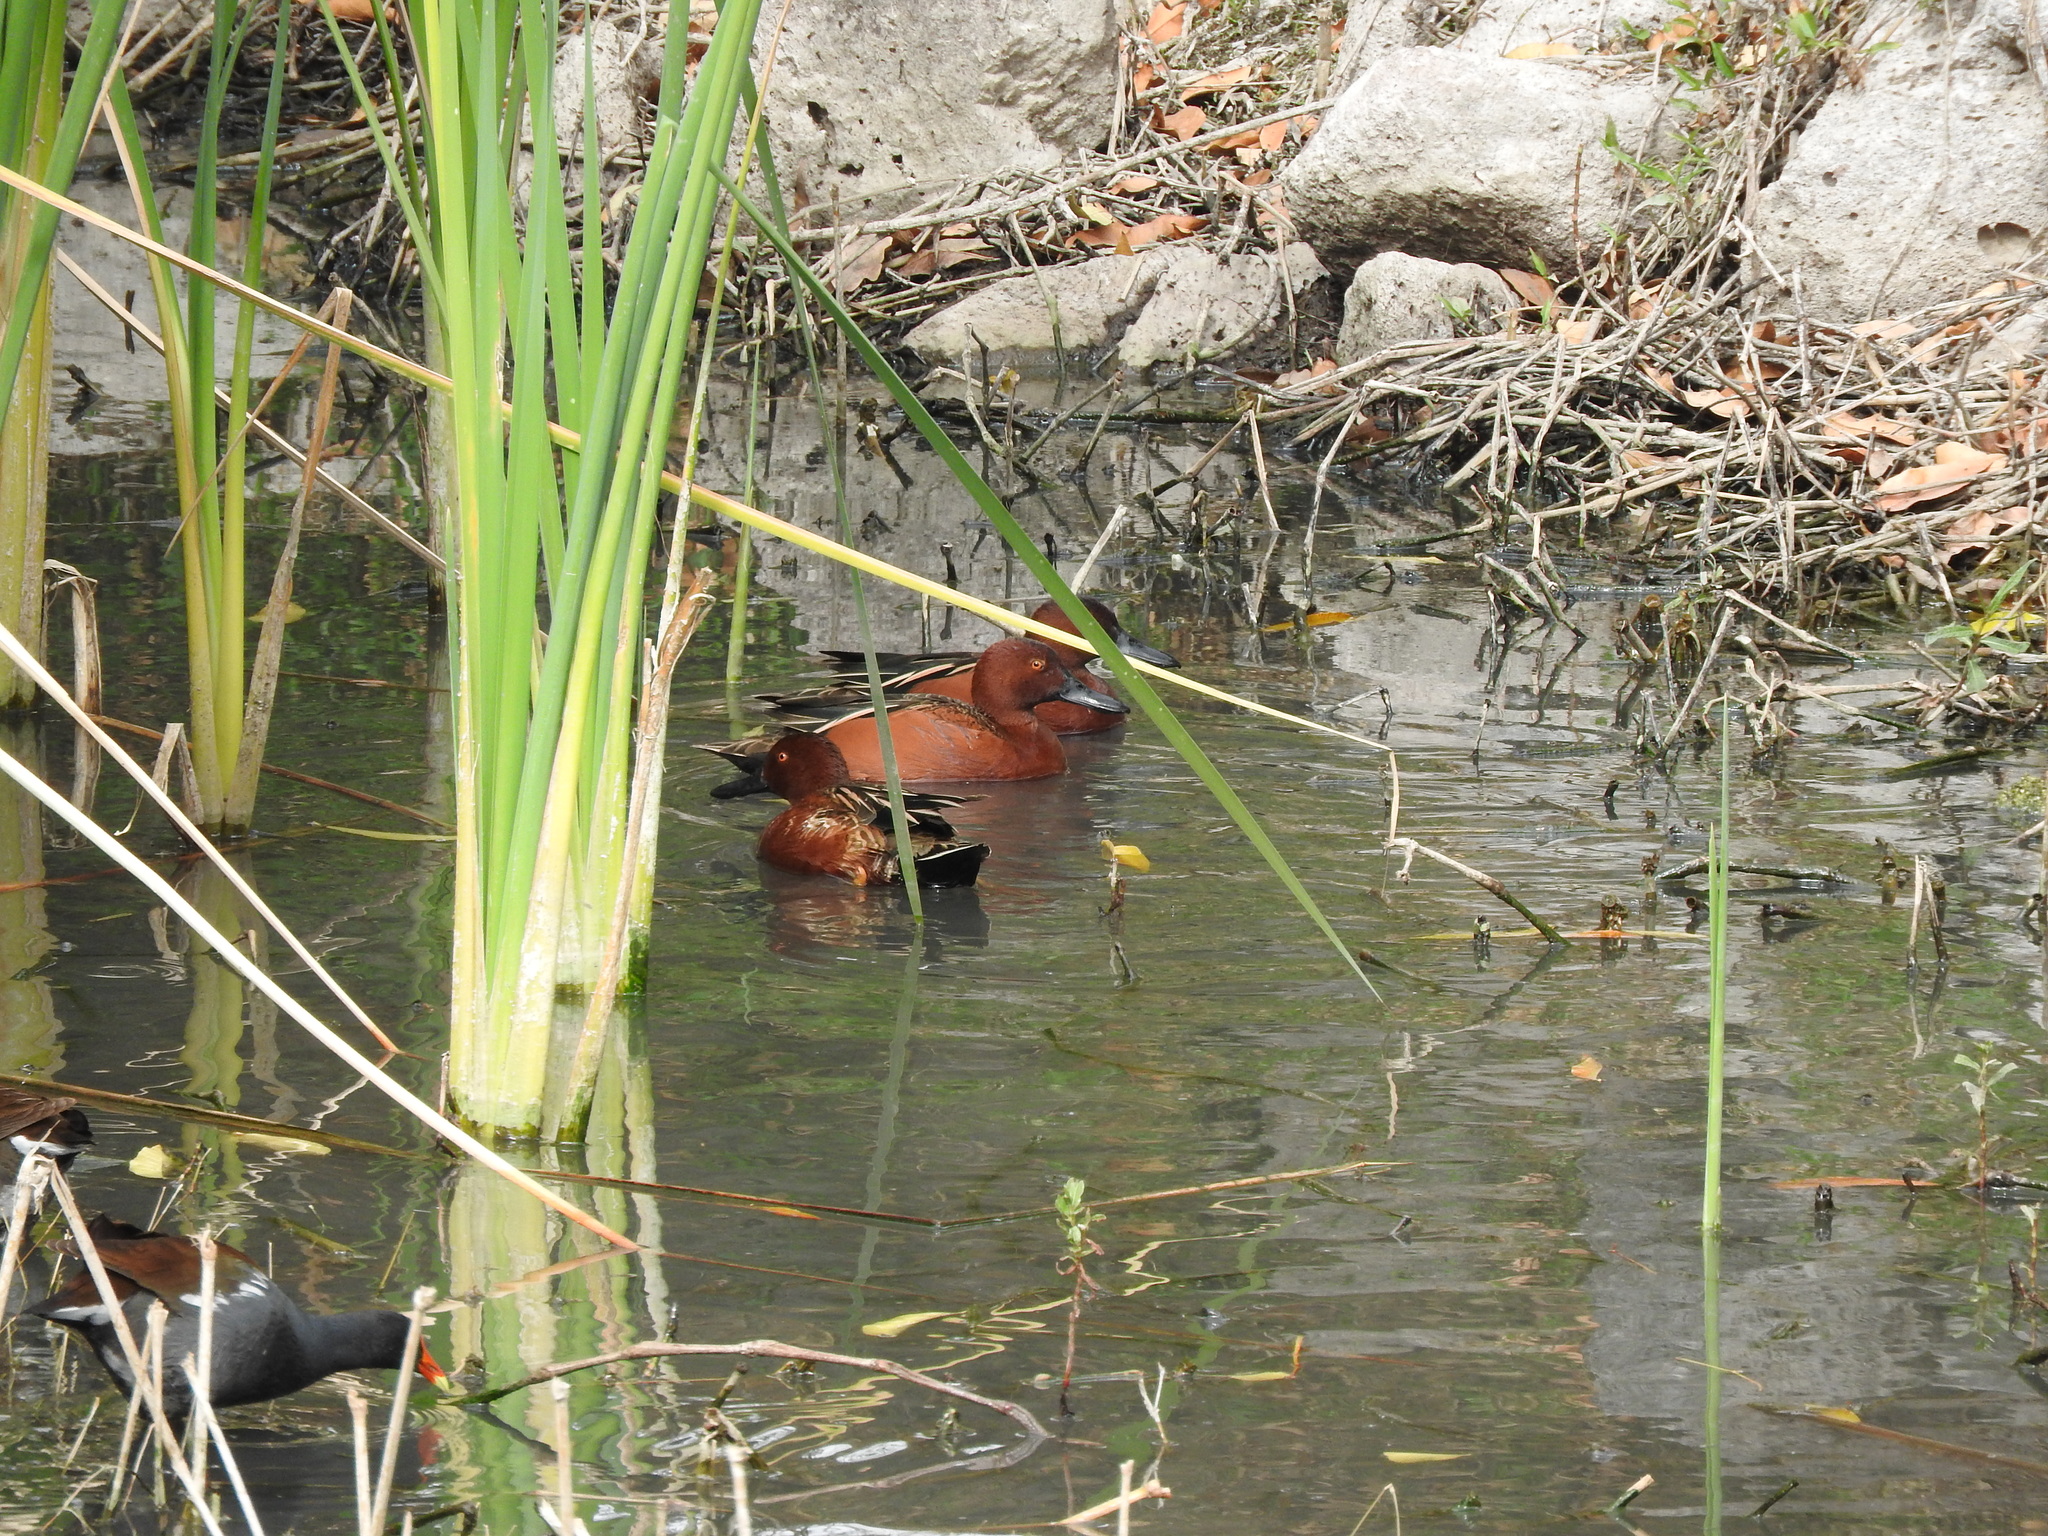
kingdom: Animalia
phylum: Chordata
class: Aves
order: Anseriformes
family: Anatidae
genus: Spatula
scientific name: Spatula cyanoptera
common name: Cinnamon teal
